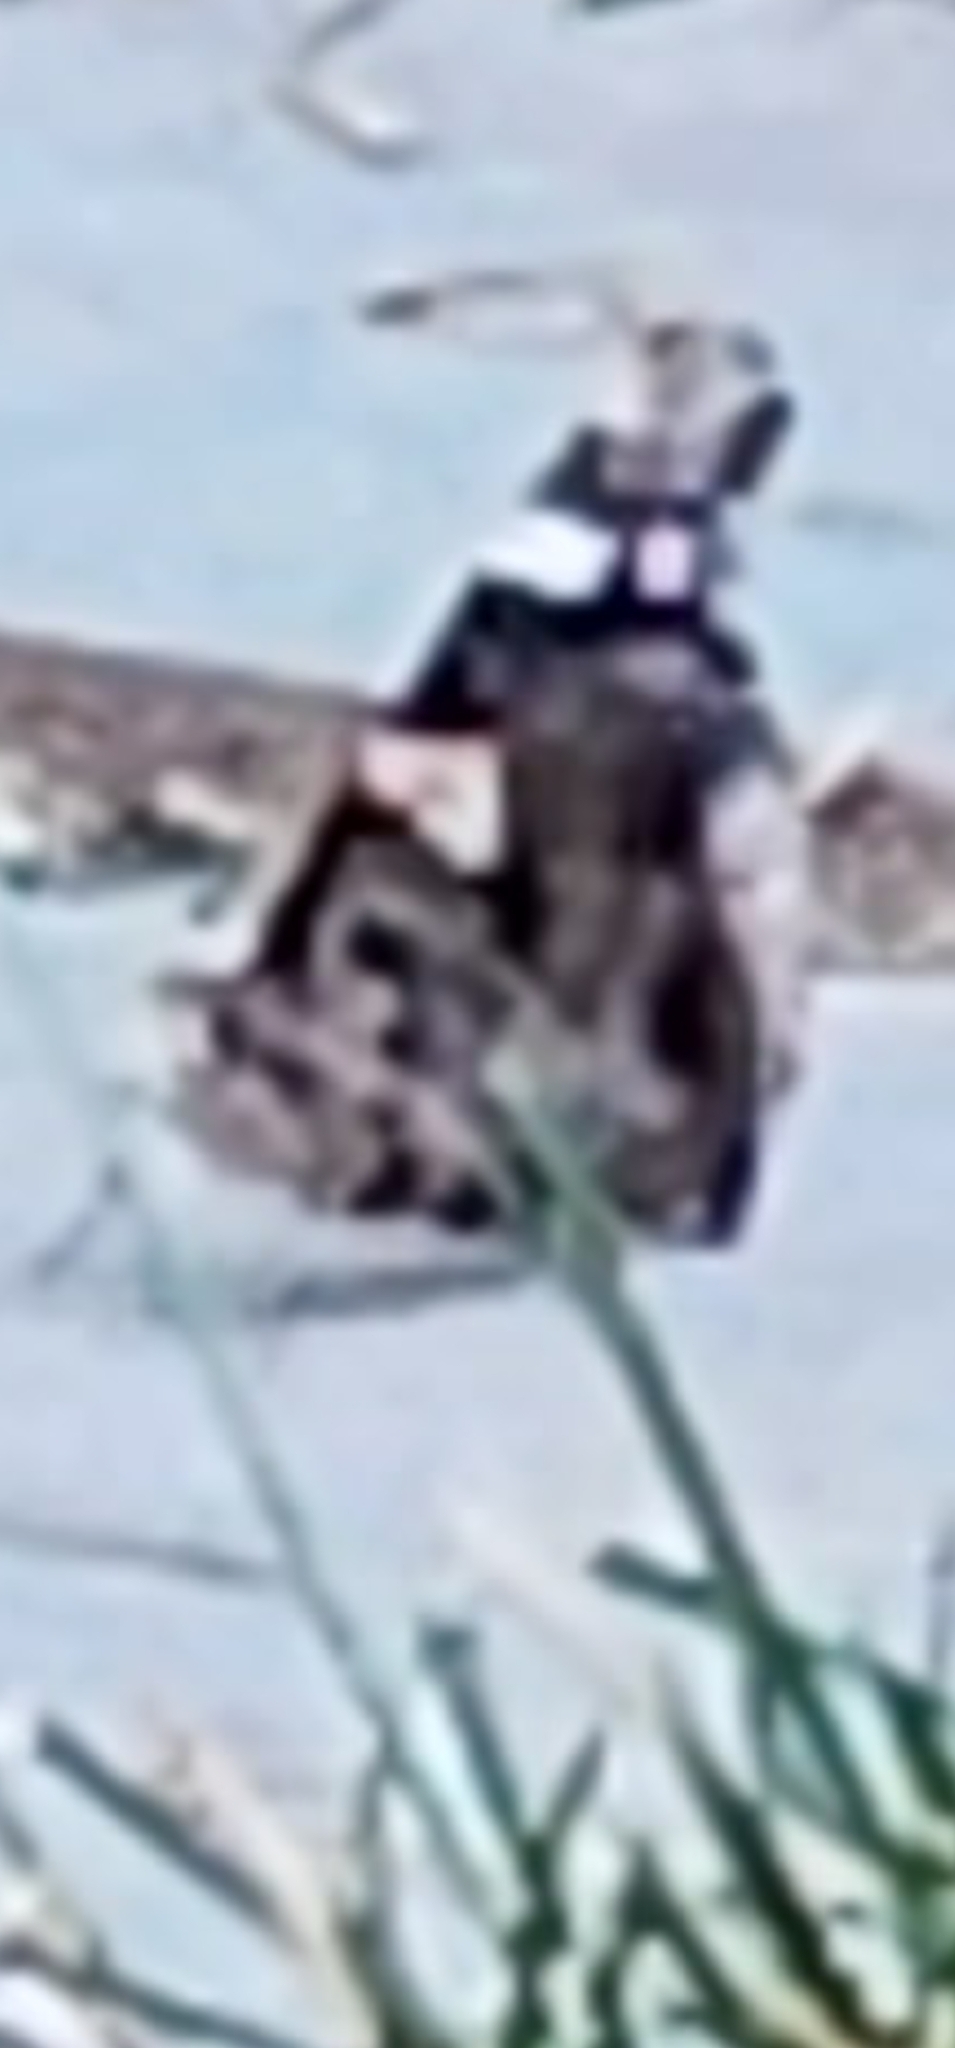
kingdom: Animalia
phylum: Arthropoda
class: Insecta
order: Lepidoptera
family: Nymphalidae
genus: Vanessa
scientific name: Vanessa atalanta
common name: Red admiral
